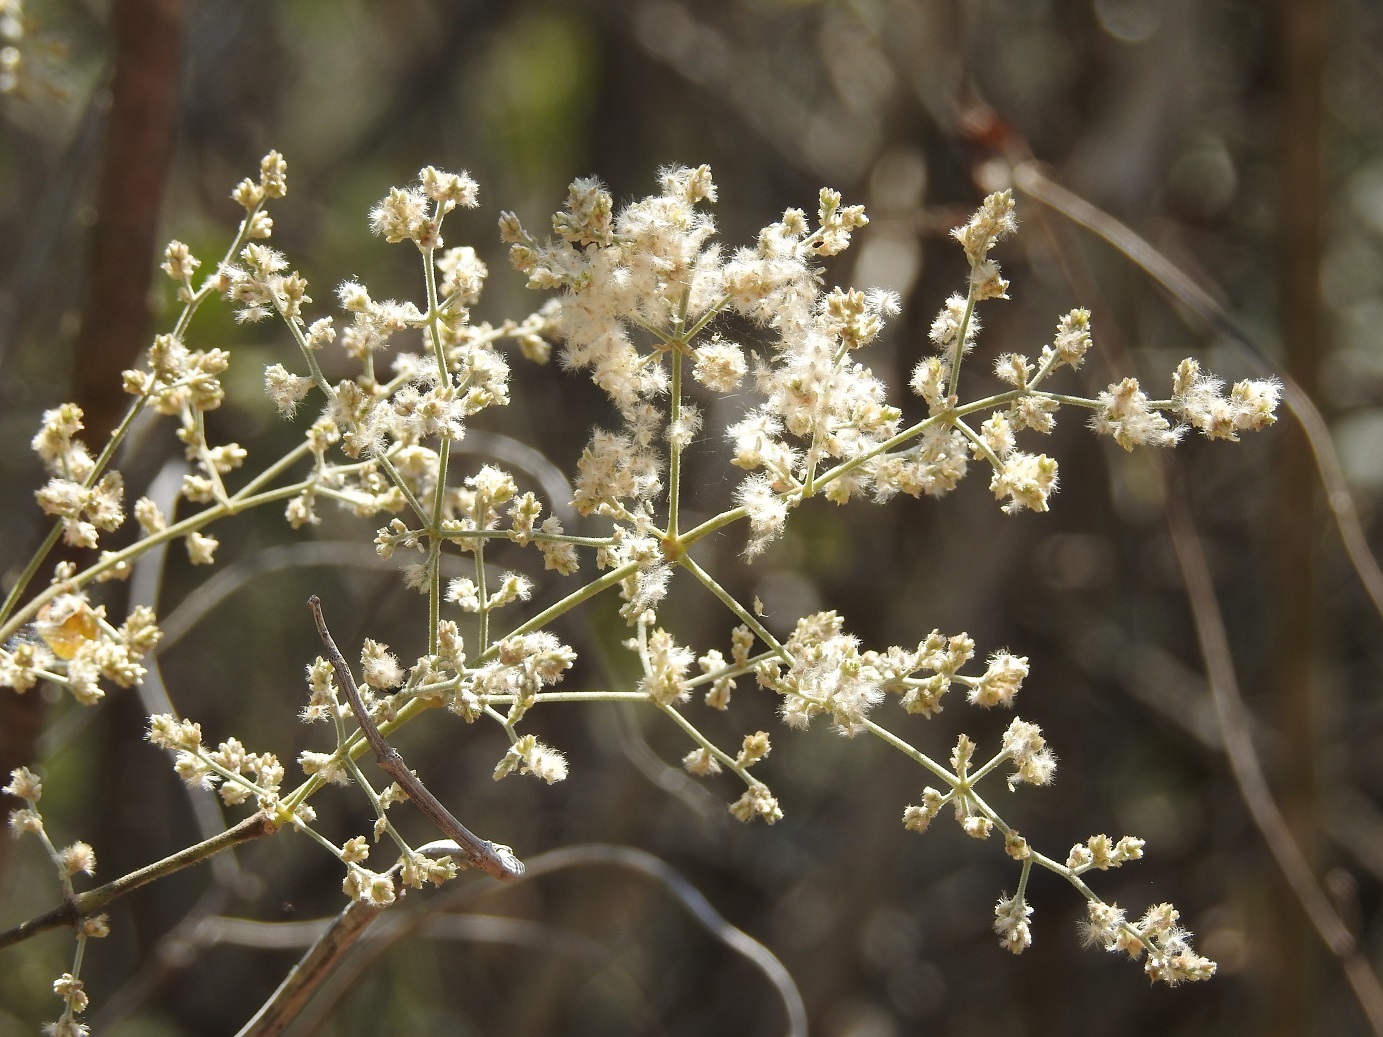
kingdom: Plantae
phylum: Tracheophyta
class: Magnoliopsida
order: Caryophyllales
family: Amaranthaceae
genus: Iresine
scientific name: Iresine latifolia
